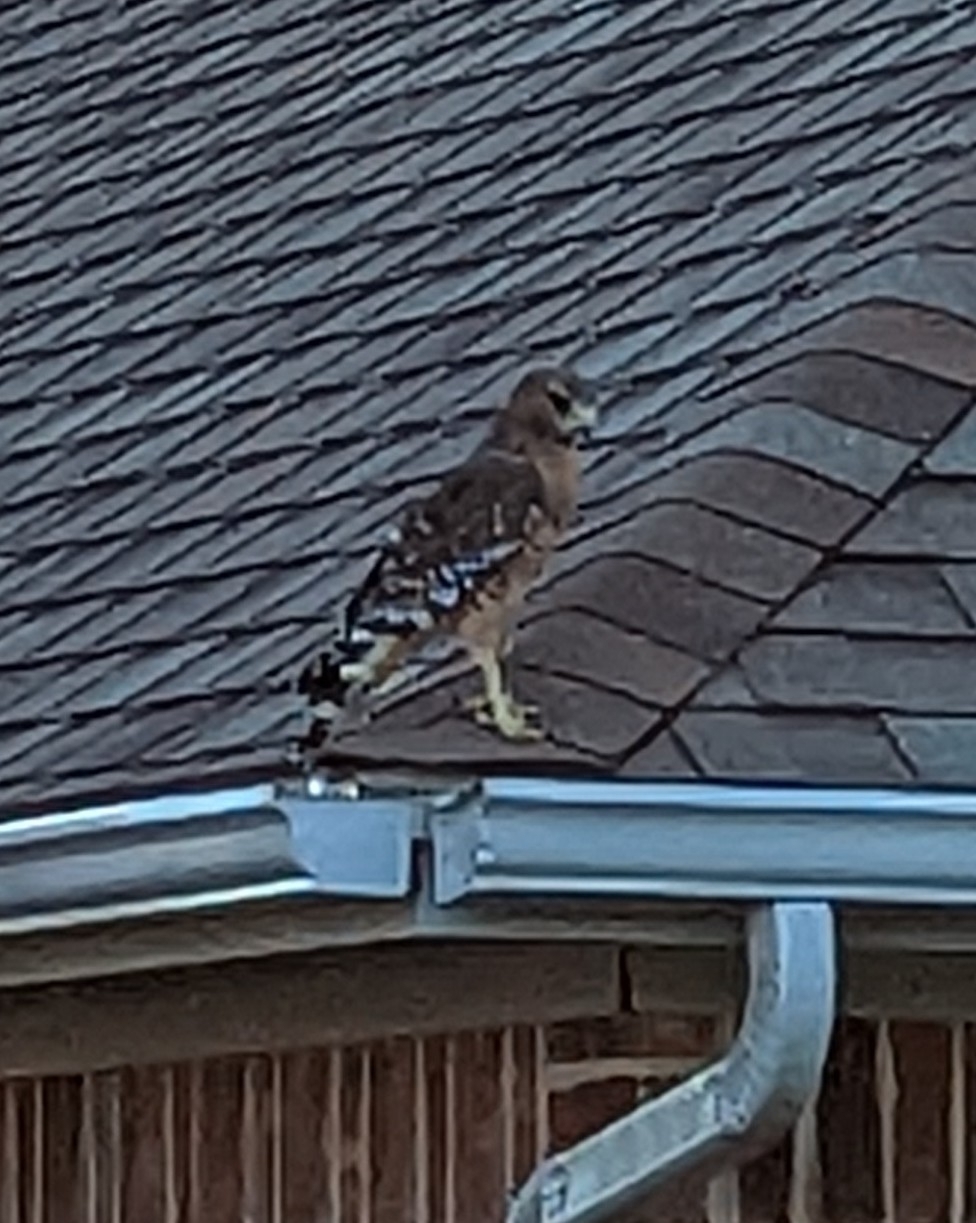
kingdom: Animalia
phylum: Chordata
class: Aves
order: Accipitriformes
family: Accipitridae
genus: Buteo
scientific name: Buteo lineatus
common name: Red-shouldered hawk
